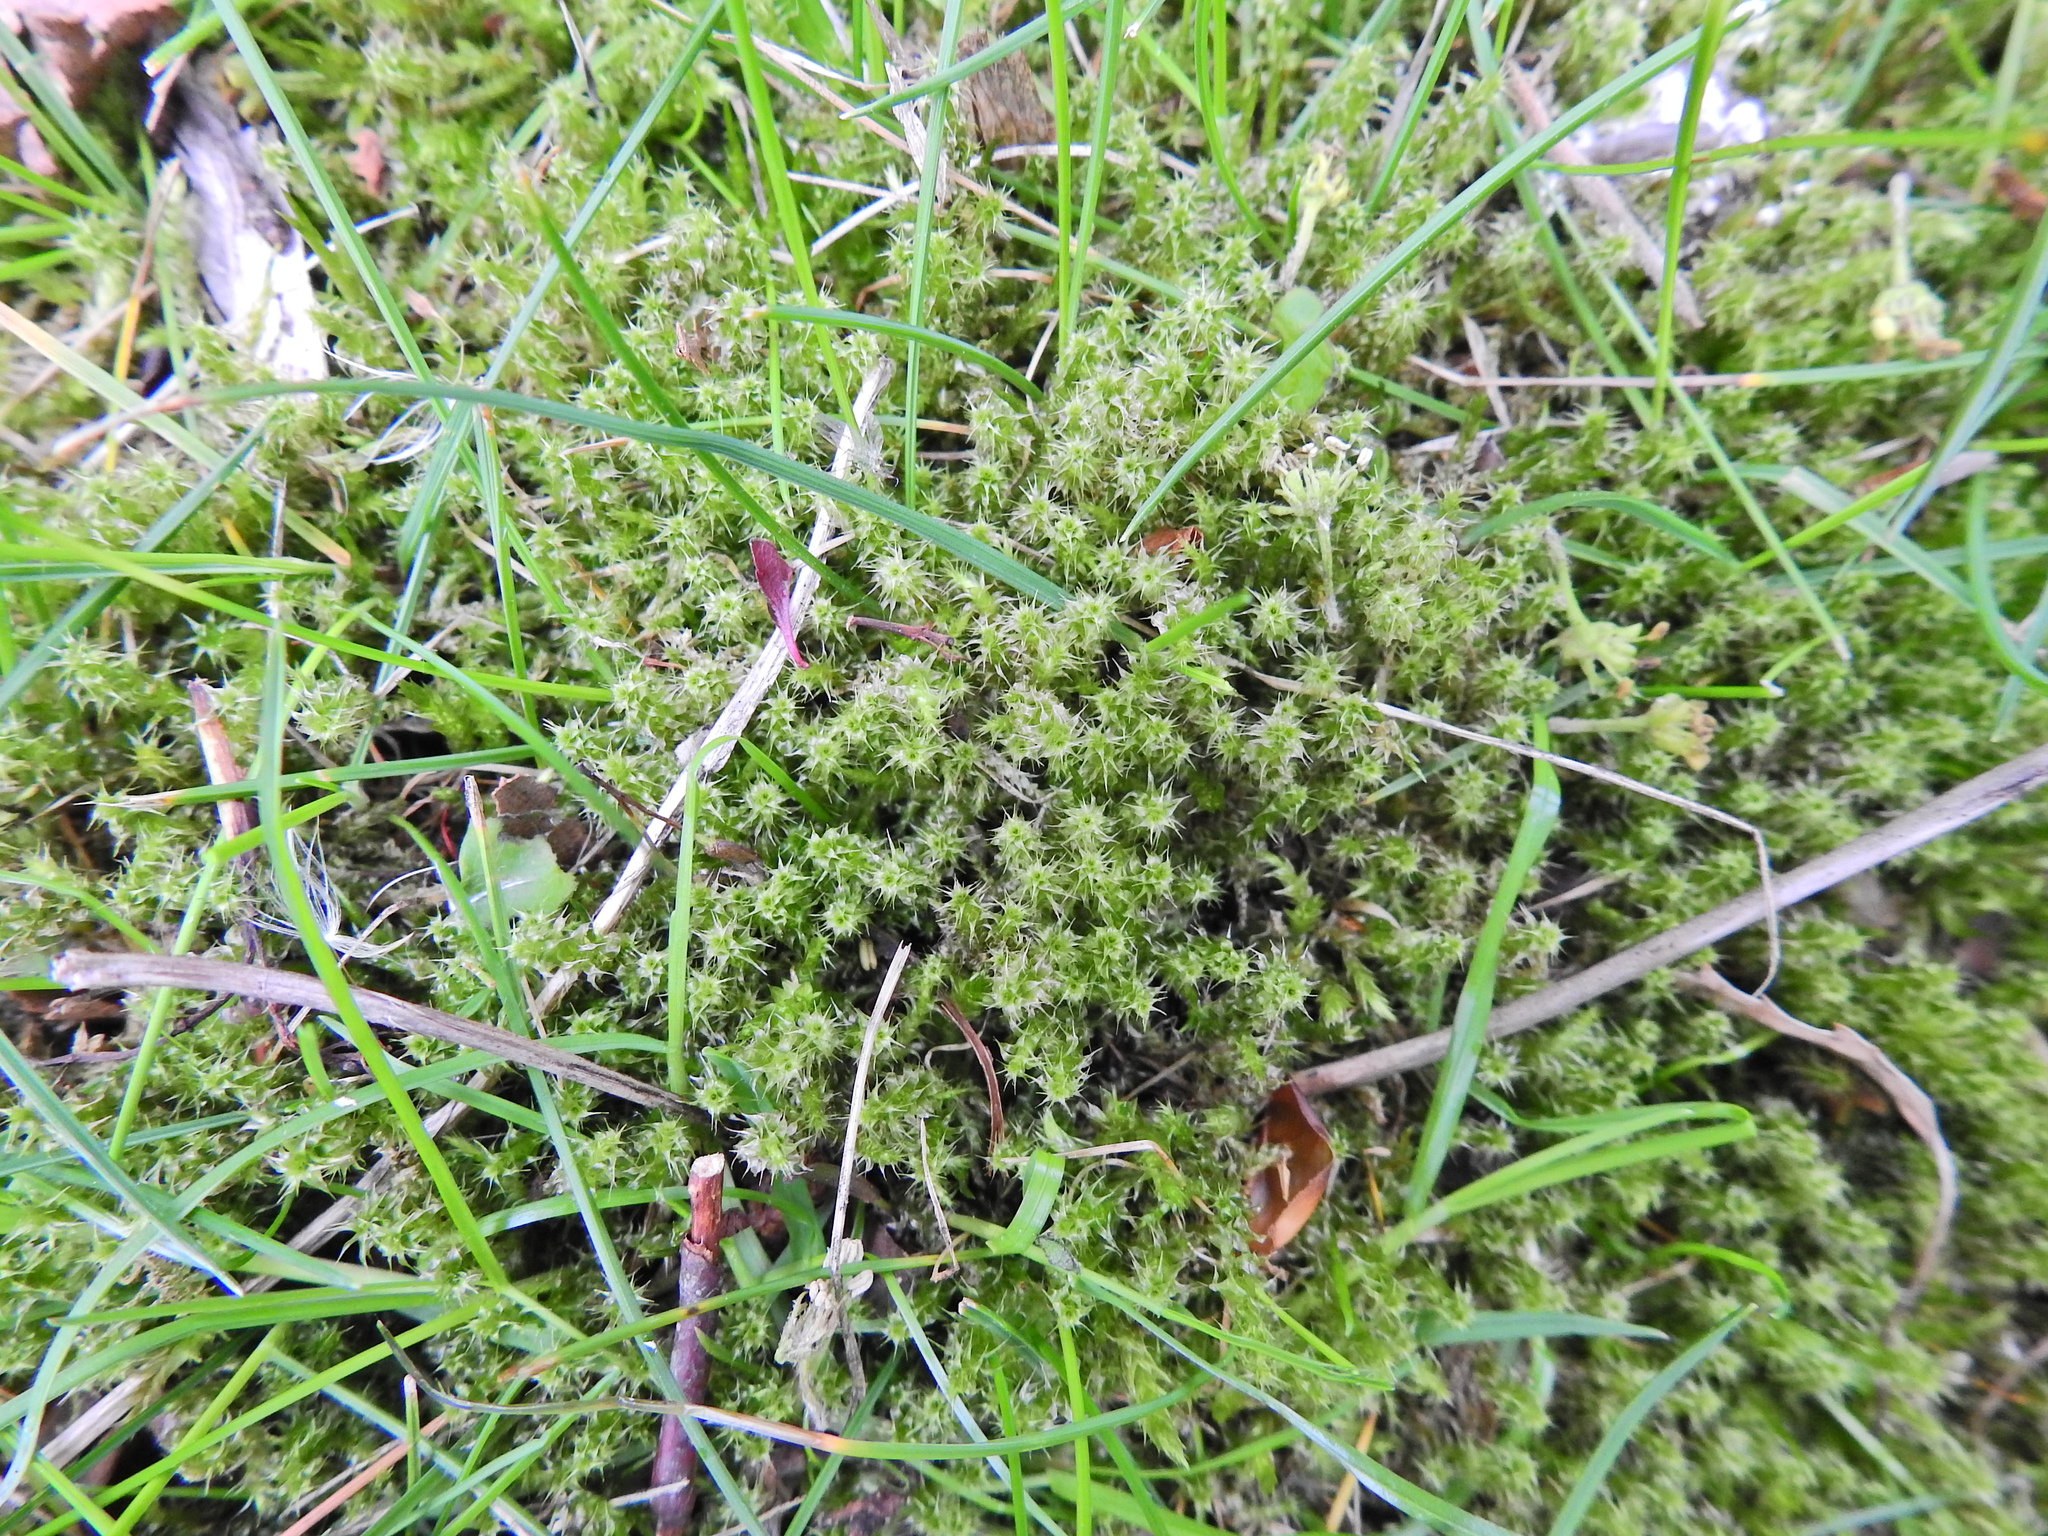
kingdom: Plantae
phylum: Bryophyta
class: Bryopsida
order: Hypnales
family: Hylocomiaceae
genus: Rhytidiadelphus
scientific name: Rhytidiadelphus squarrosus
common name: Springy turf-moss
